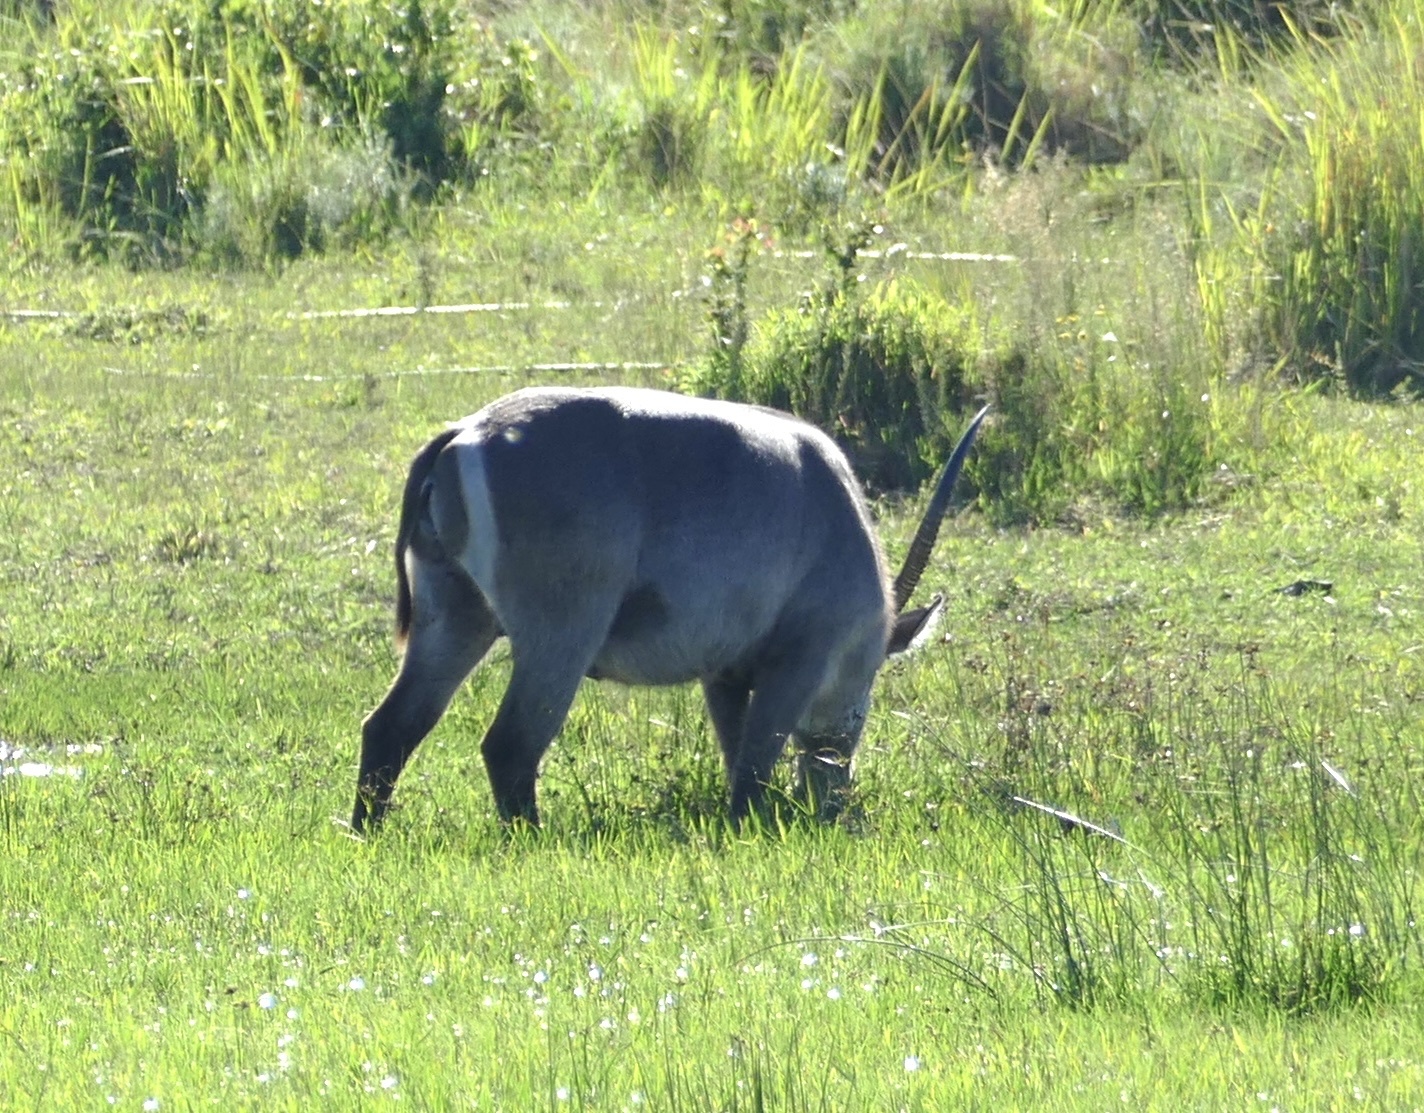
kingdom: Animalia
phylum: Chordata
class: Mammalia
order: Artiodactyla
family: Bovidae
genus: Kobus
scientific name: Kobus ellipsiprymnus
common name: Waterbuck
